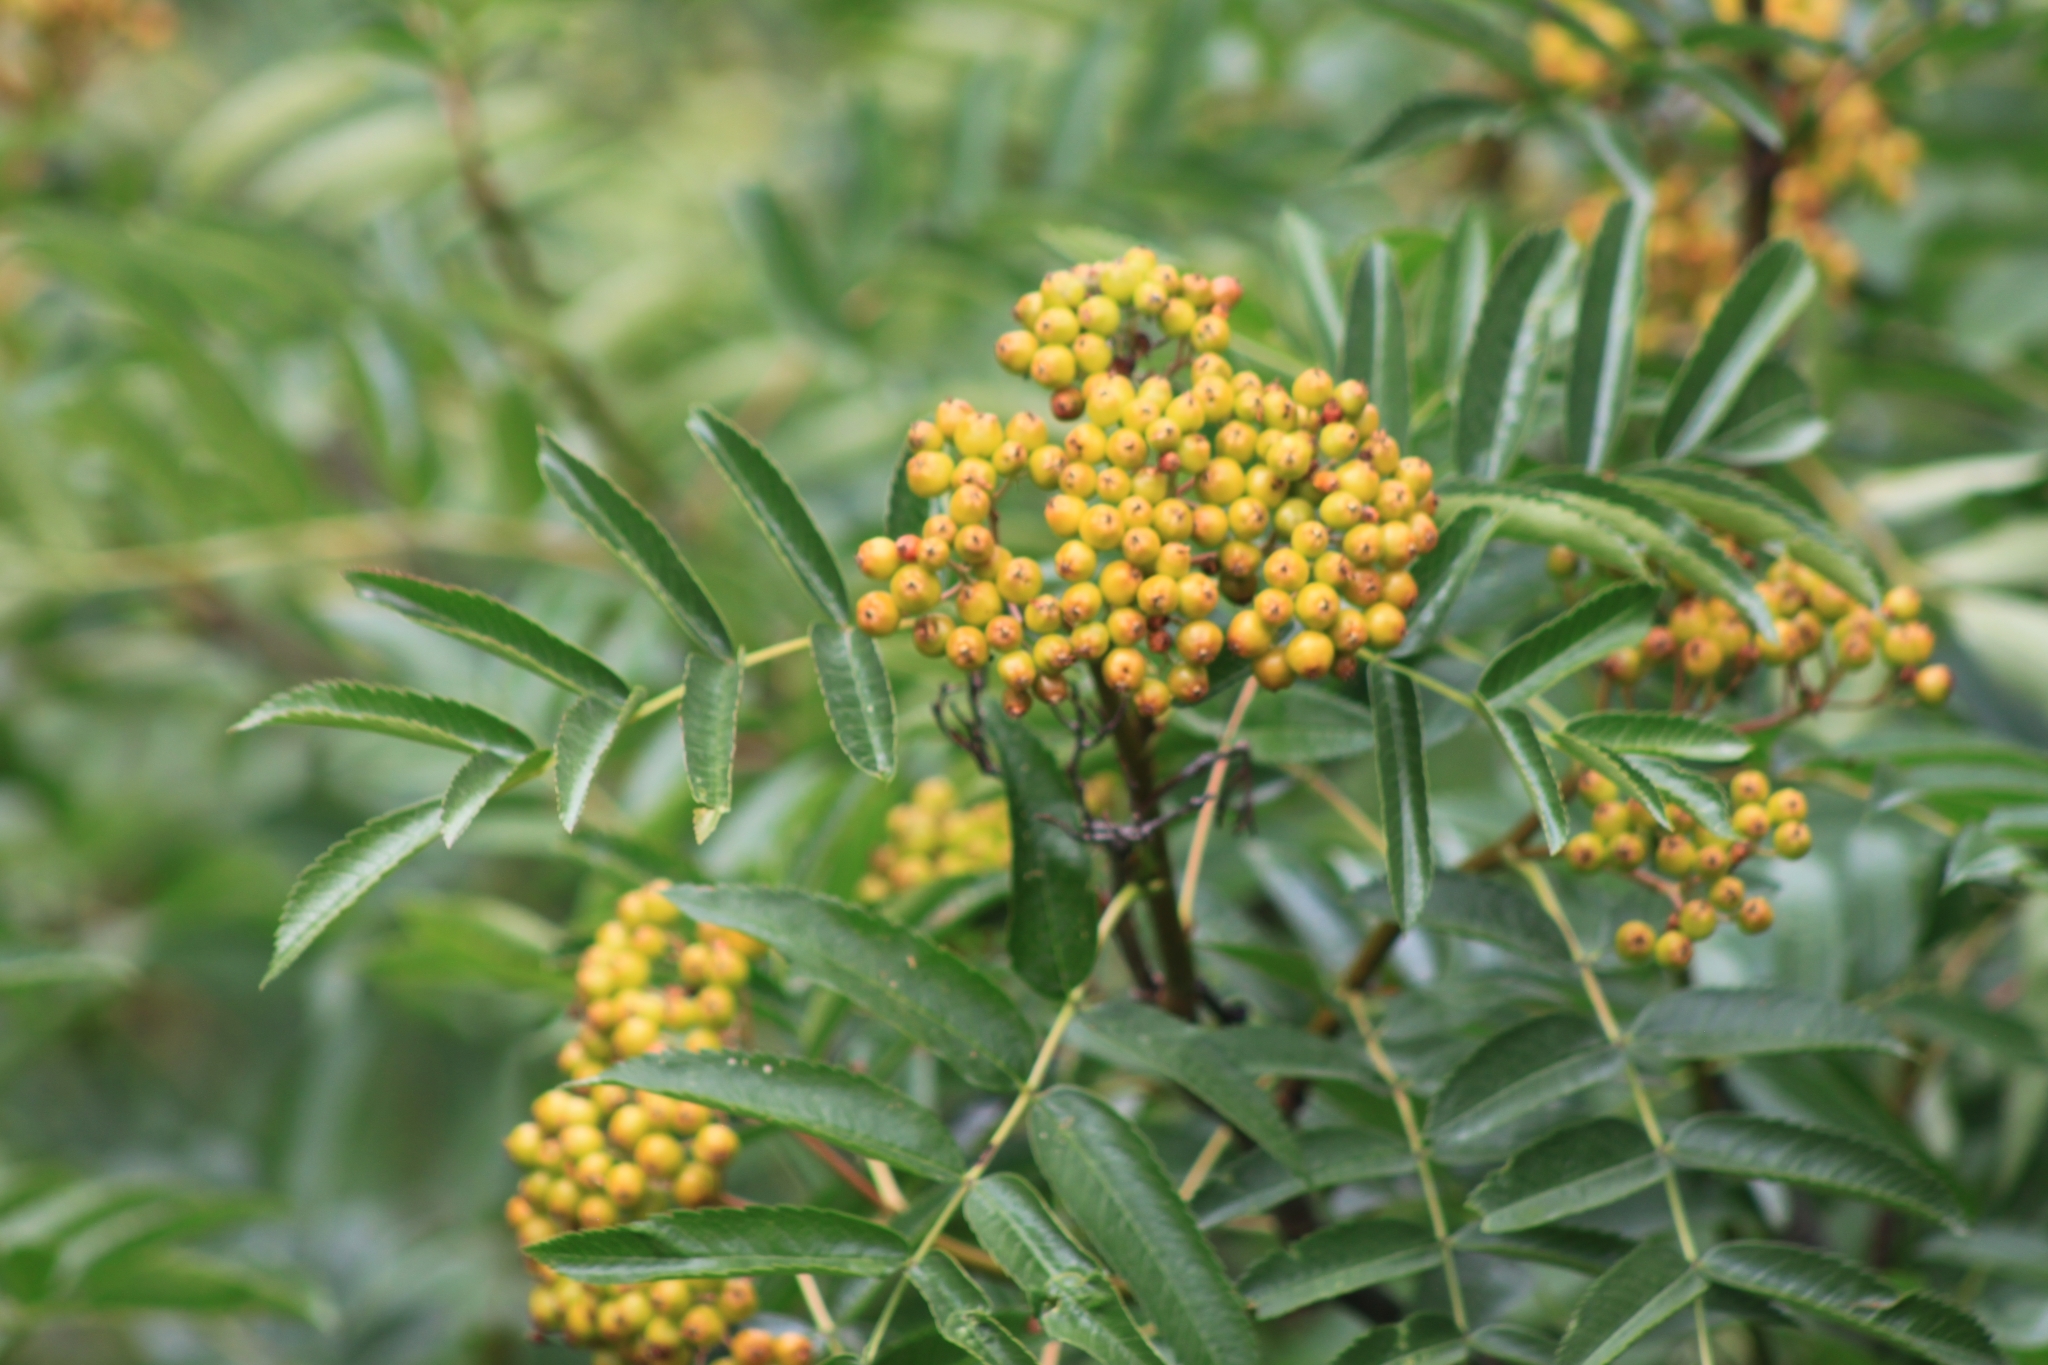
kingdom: Plantae
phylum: Tracheophyta
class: Magnoliopsida
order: Rosales
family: Rosaceae
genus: Sorbus
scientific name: Sorbus scopulina
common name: Greene's mountain-ash
